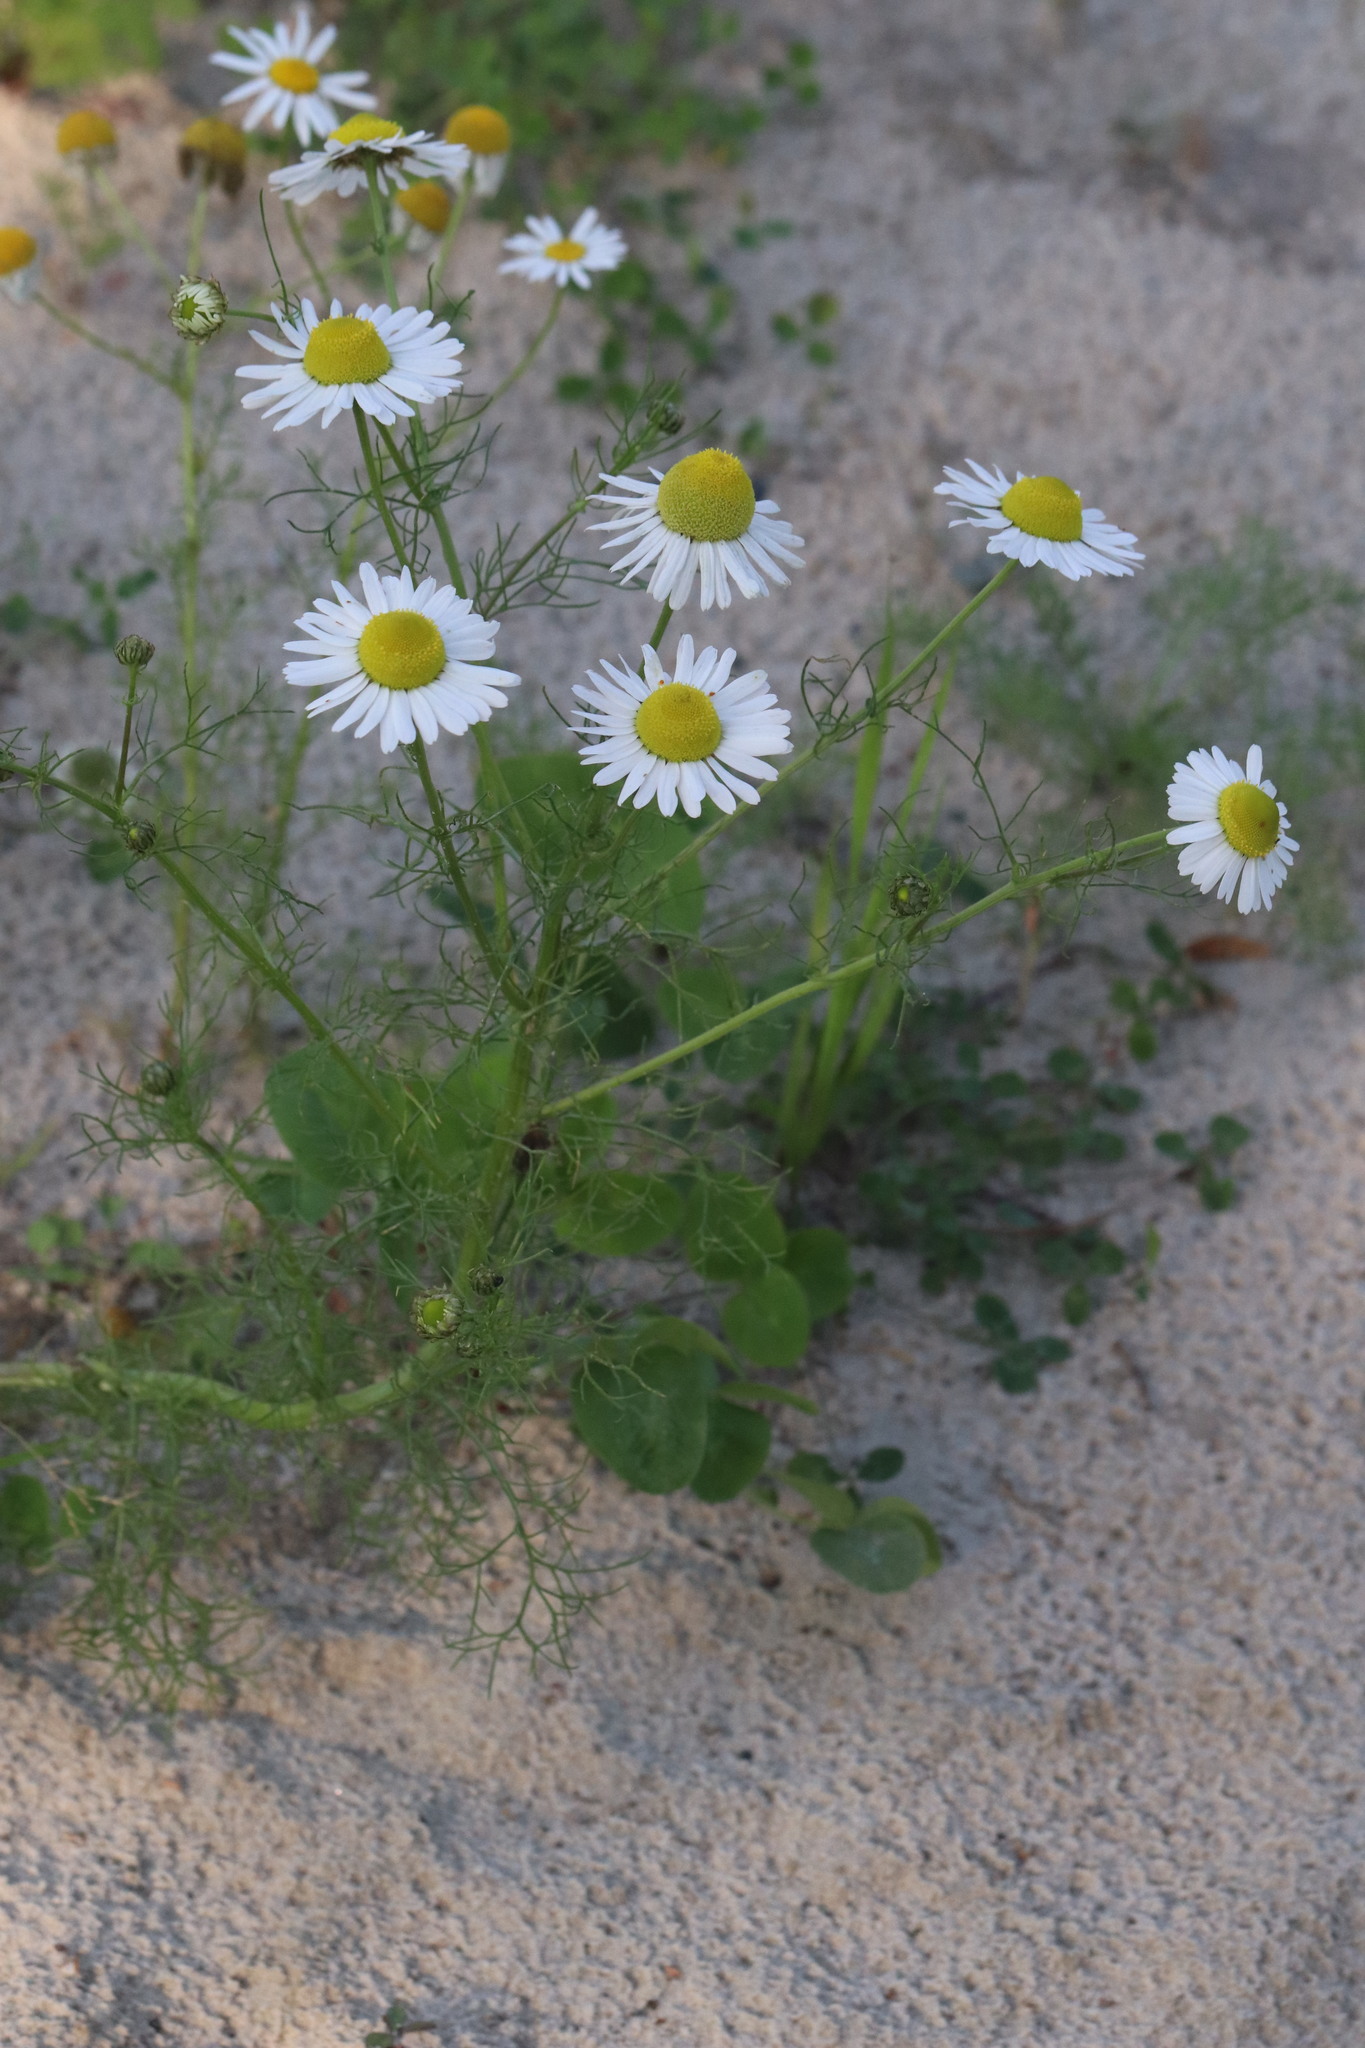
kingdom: Plantae
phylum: Tracheophyta
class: Magnoliopsida
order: Asterales
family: Asteraceae
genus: Tripleurospermum
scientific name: Tripleurospermum inodorum
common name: Scentless mayweed
